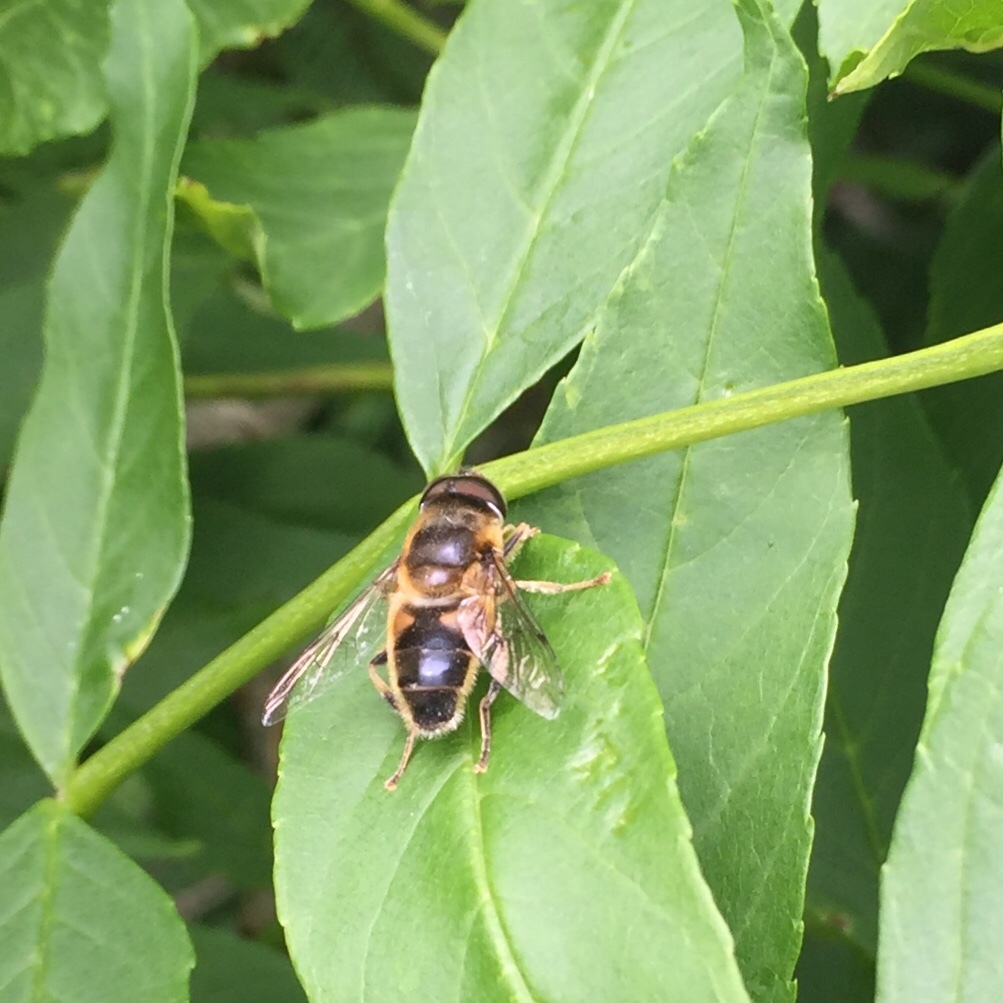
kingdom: Animalia
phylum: Arthropoda
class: Insecta
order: Diptera
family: Syrphidae
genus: Eristalis
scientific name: Eristalis pertinax
